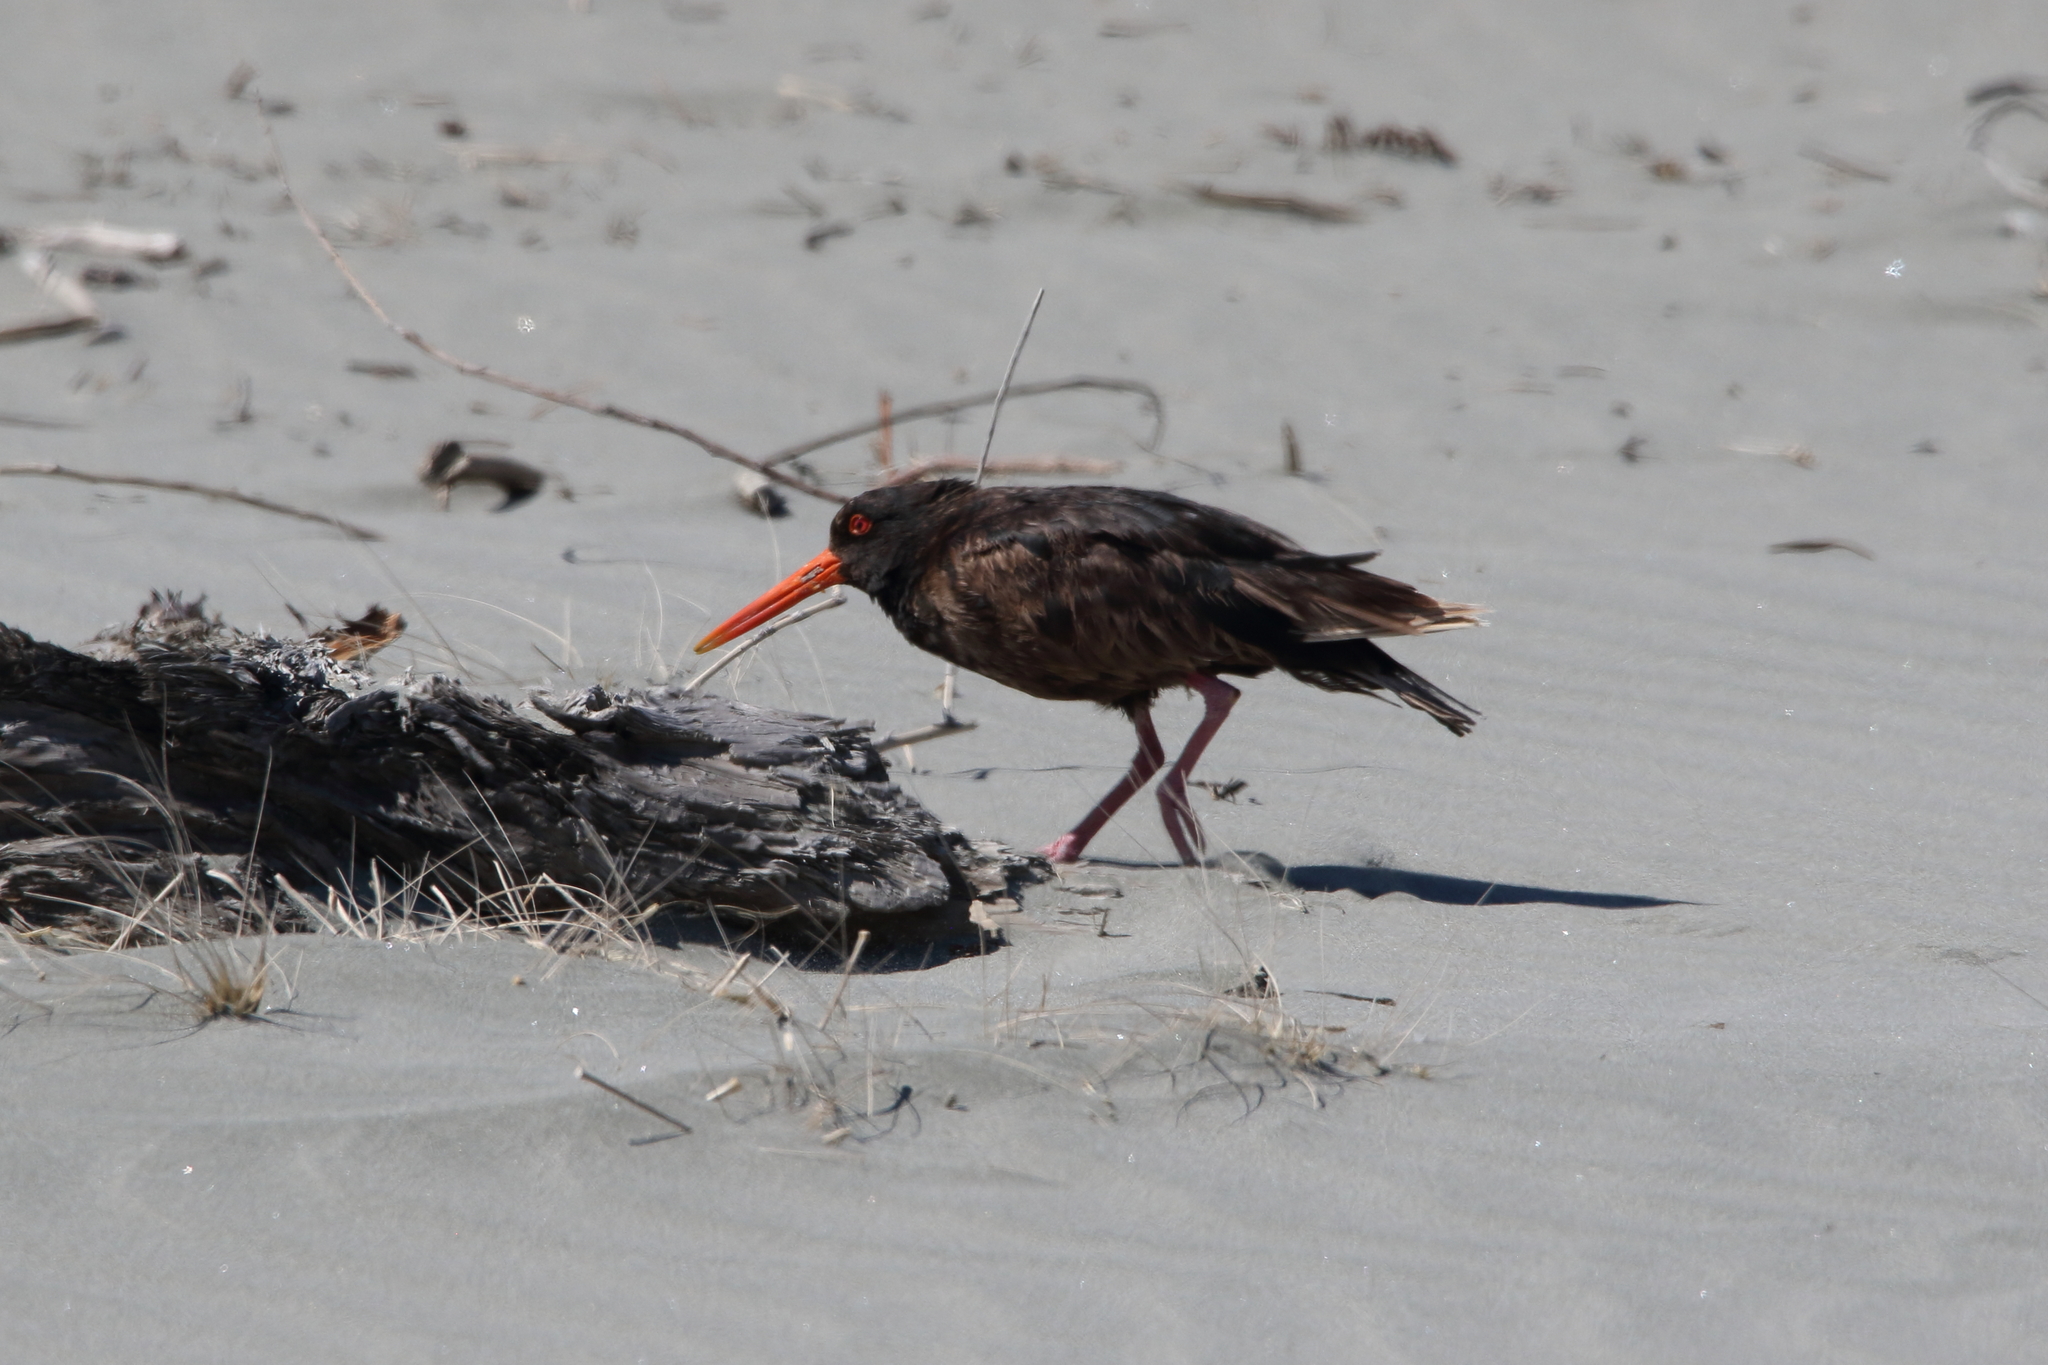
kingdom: Animalia
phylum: Chordata
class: Aves
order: Charadriiformes
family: Haematopodidae
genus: Haematopus
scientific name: Haematopus unicolor
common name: Variable oystercatcher
